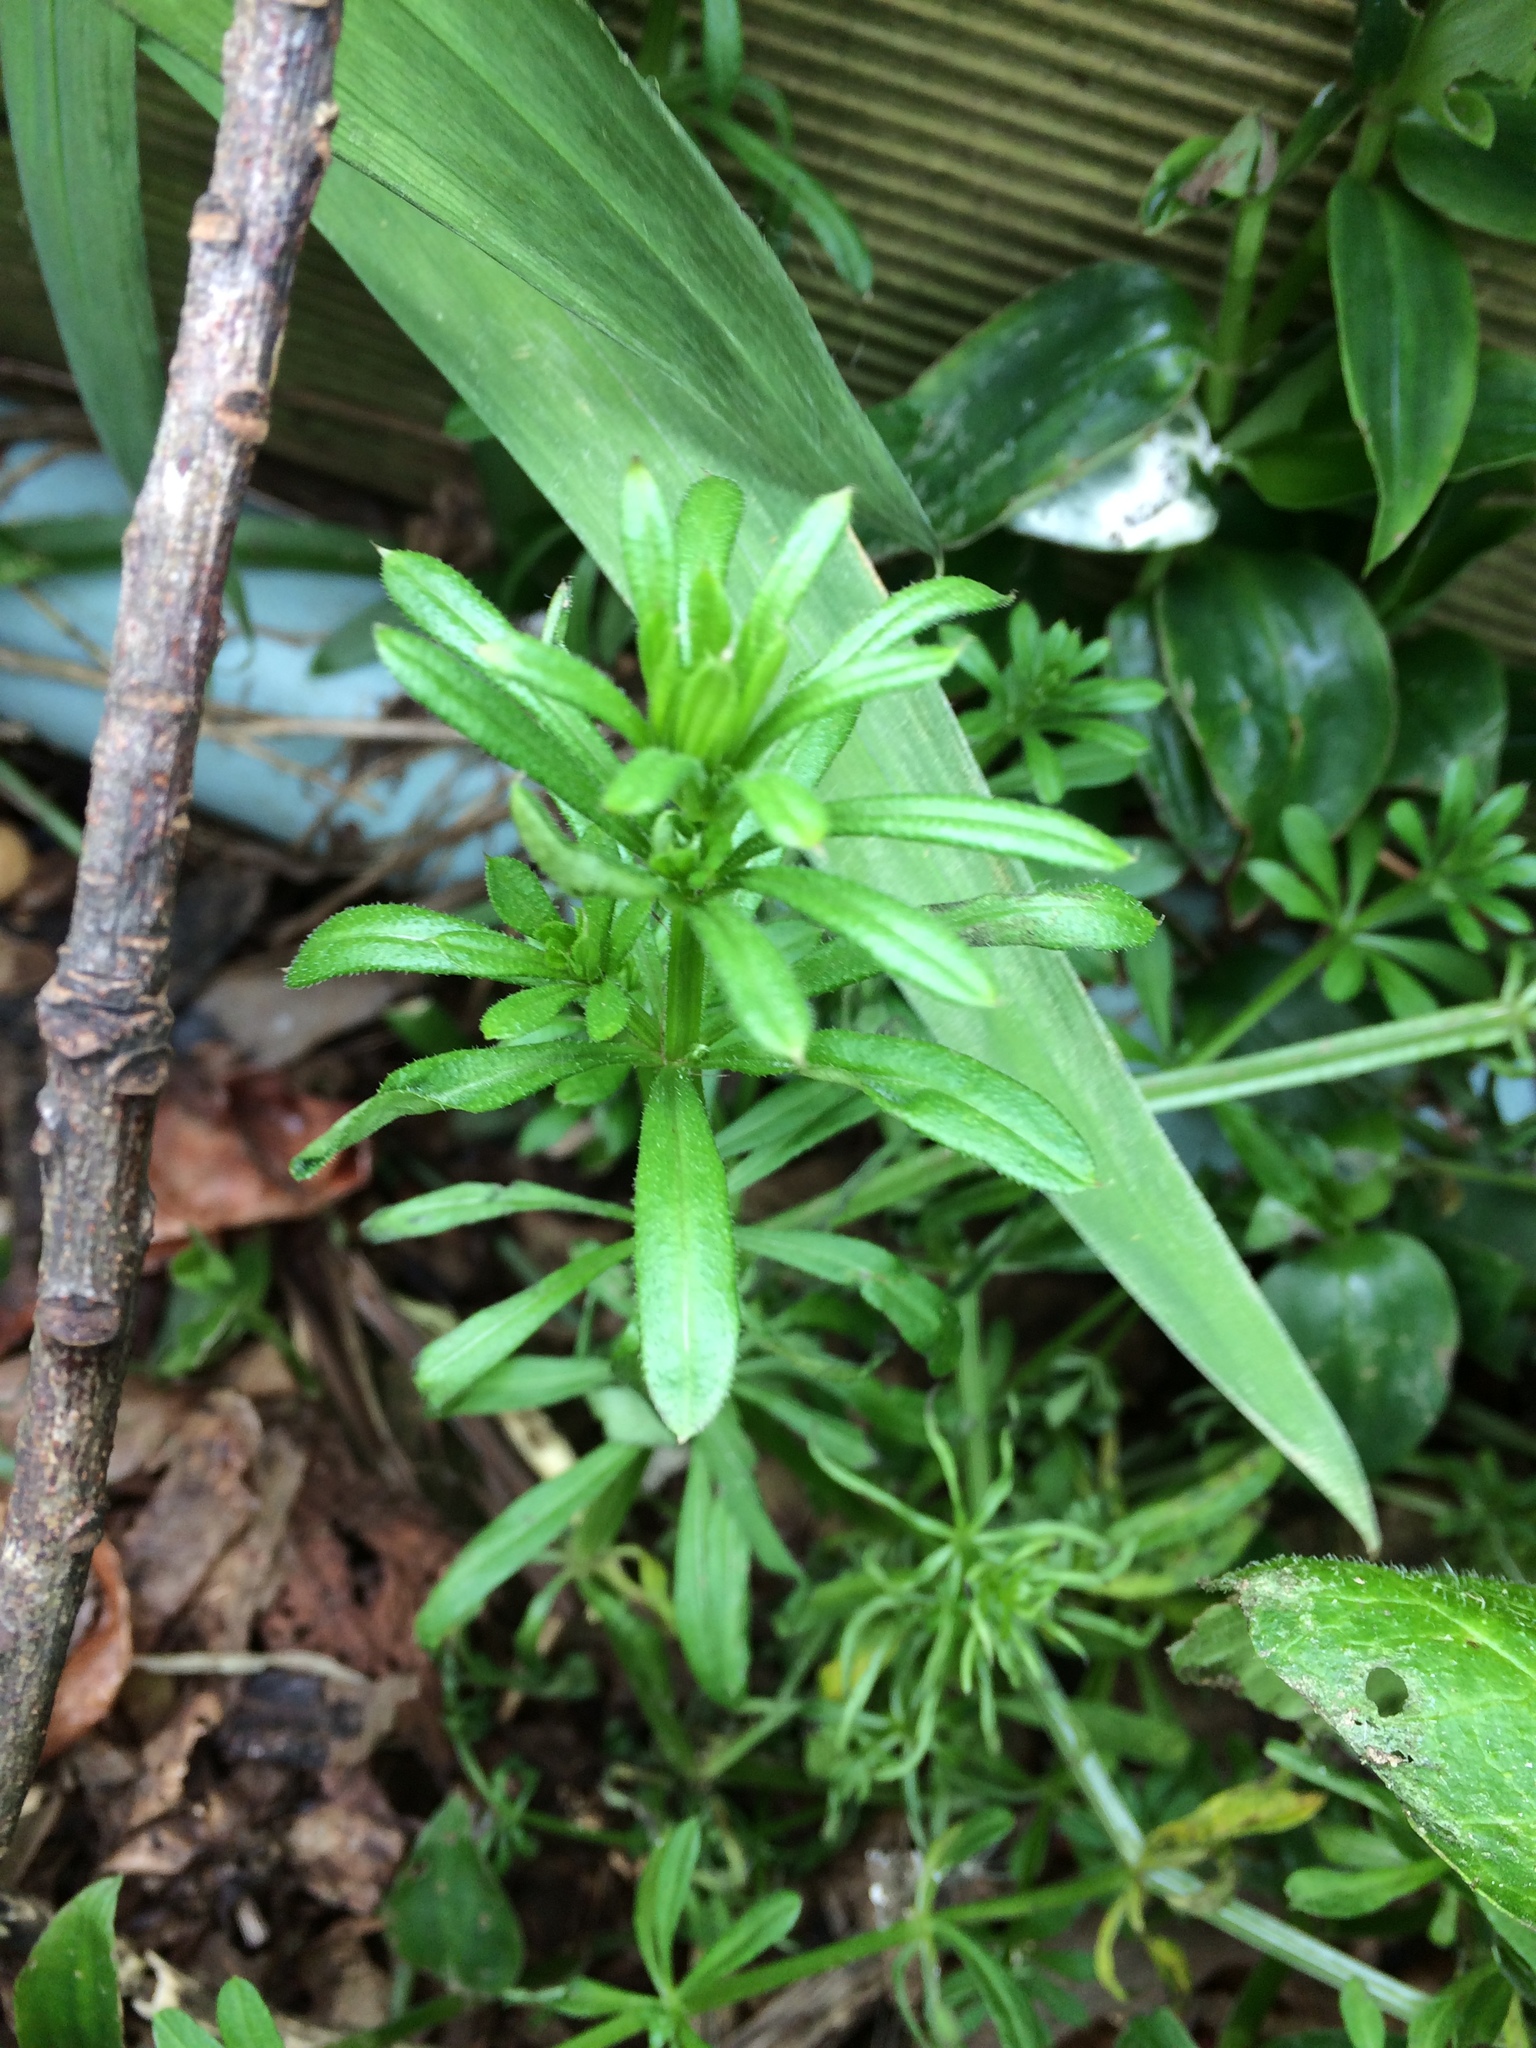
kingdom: Plantae
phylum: Tracheophyta
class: Magnoliopsida
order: Gentianales
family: Rubiaceae
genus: Galium
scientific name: Galium aparine
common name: Cleavers
